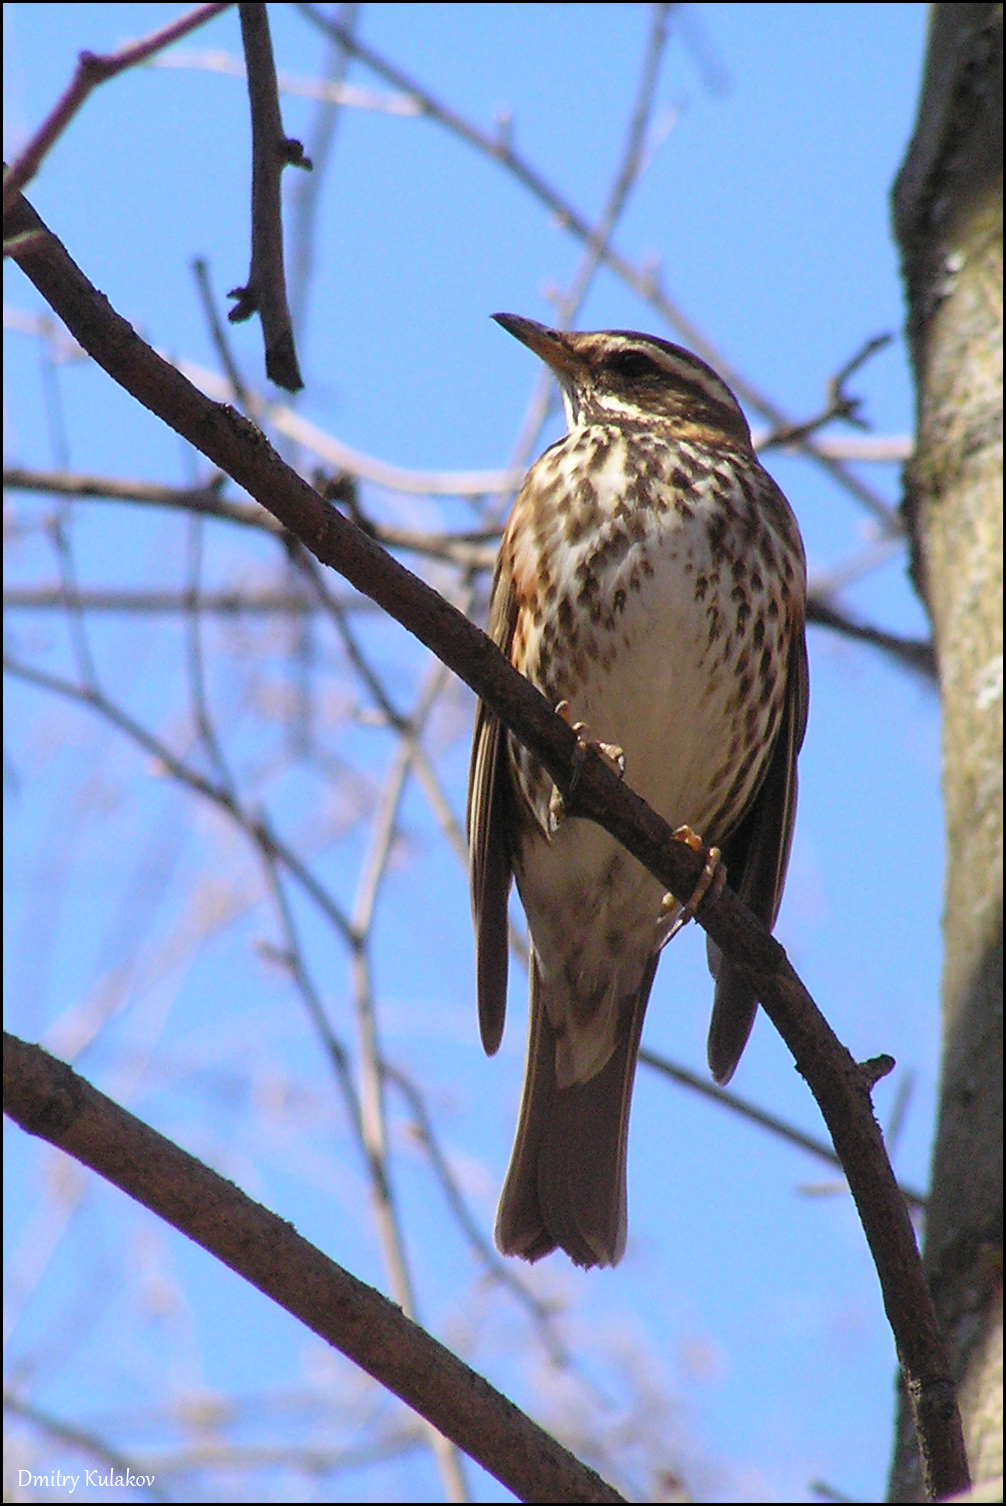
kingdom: Animalia
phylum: Chordata
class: Aves
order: Passeriformes
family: Turdidae
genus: Turdus
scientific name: Turdus iliacus
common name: Redwing
